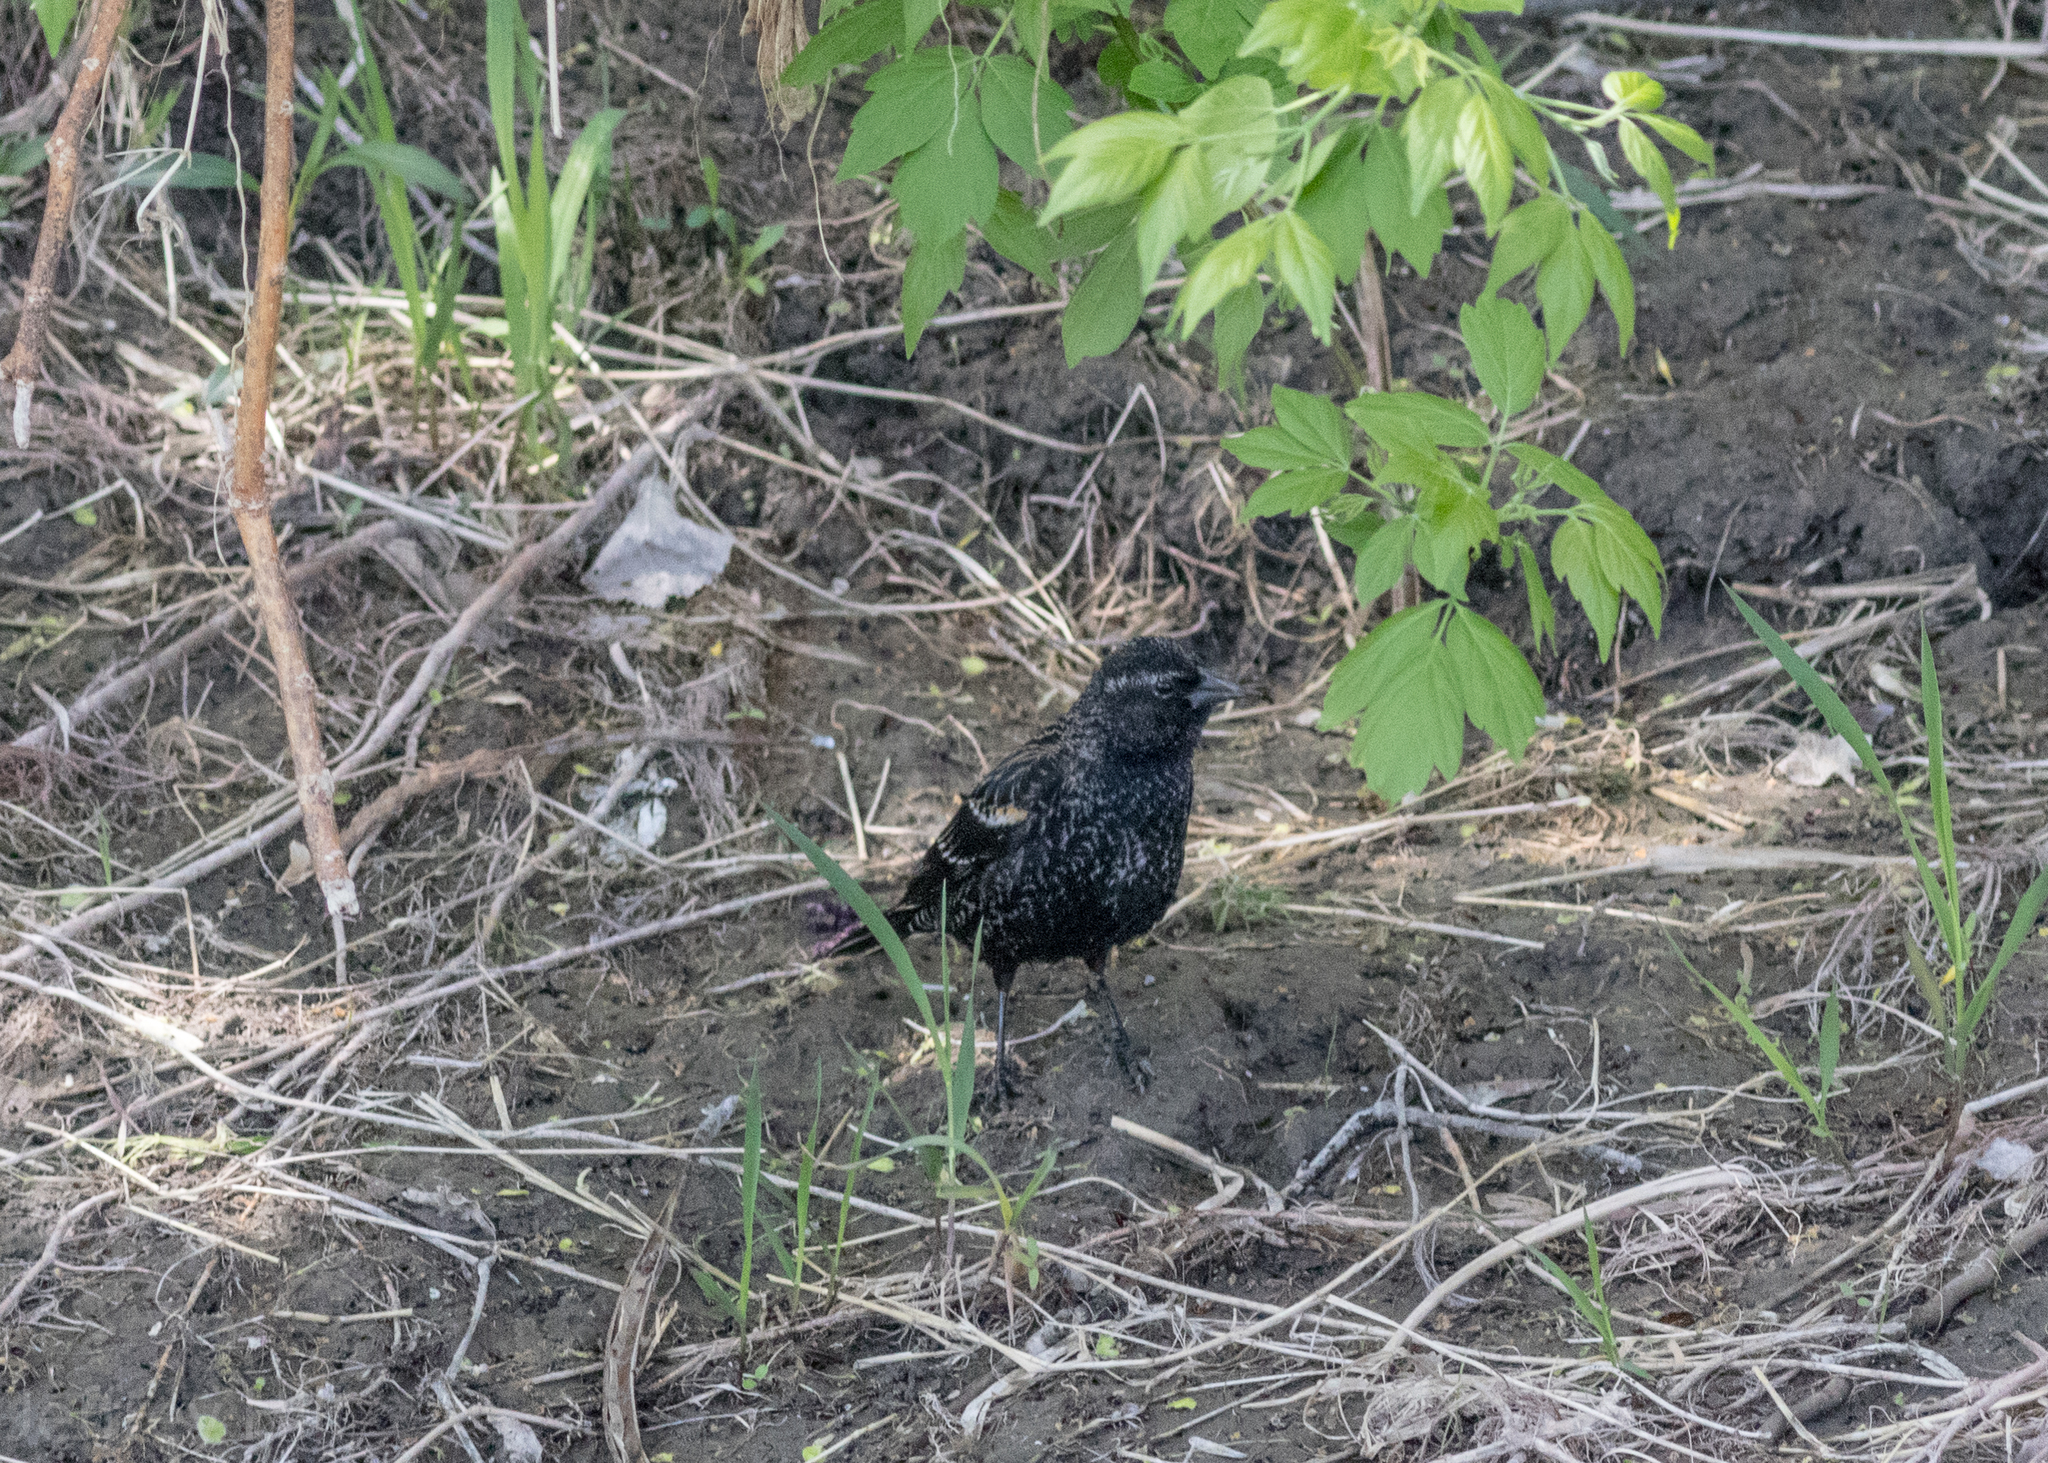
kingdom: Animalia
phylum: Chordata
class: Aves
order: Passeriformes
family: Icteridae
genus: Agelaius
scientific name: Agelaius phoeniceus
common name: Red-winged blackbird
